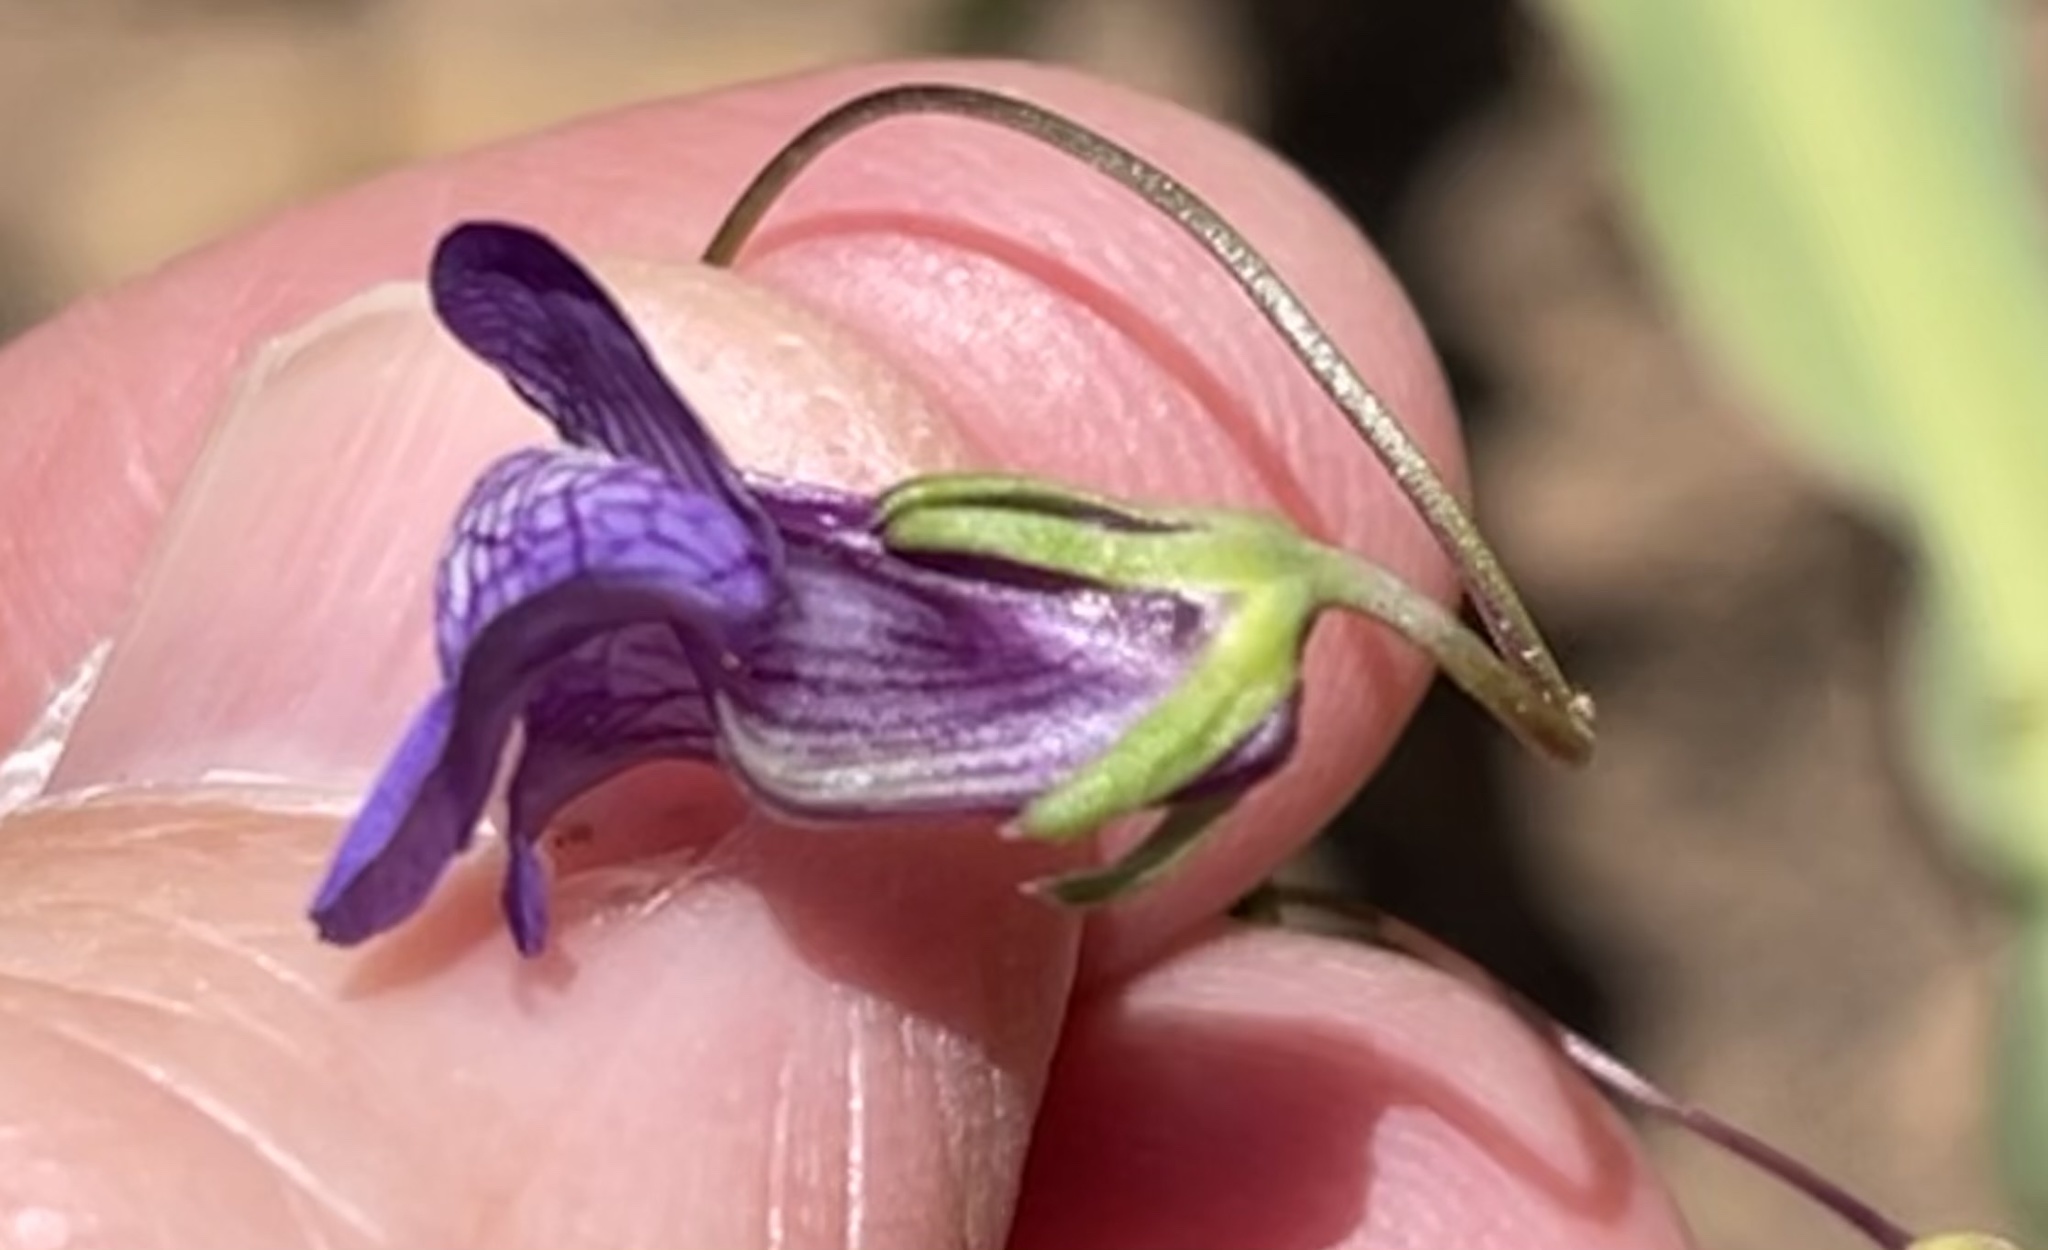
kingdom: Plantae
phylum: Tracheophyta
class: Magnoliopsida
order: Lamiales
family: Plantaginaceae
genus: Neogaerrhinum
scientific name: Neogaerrhinum strictum
